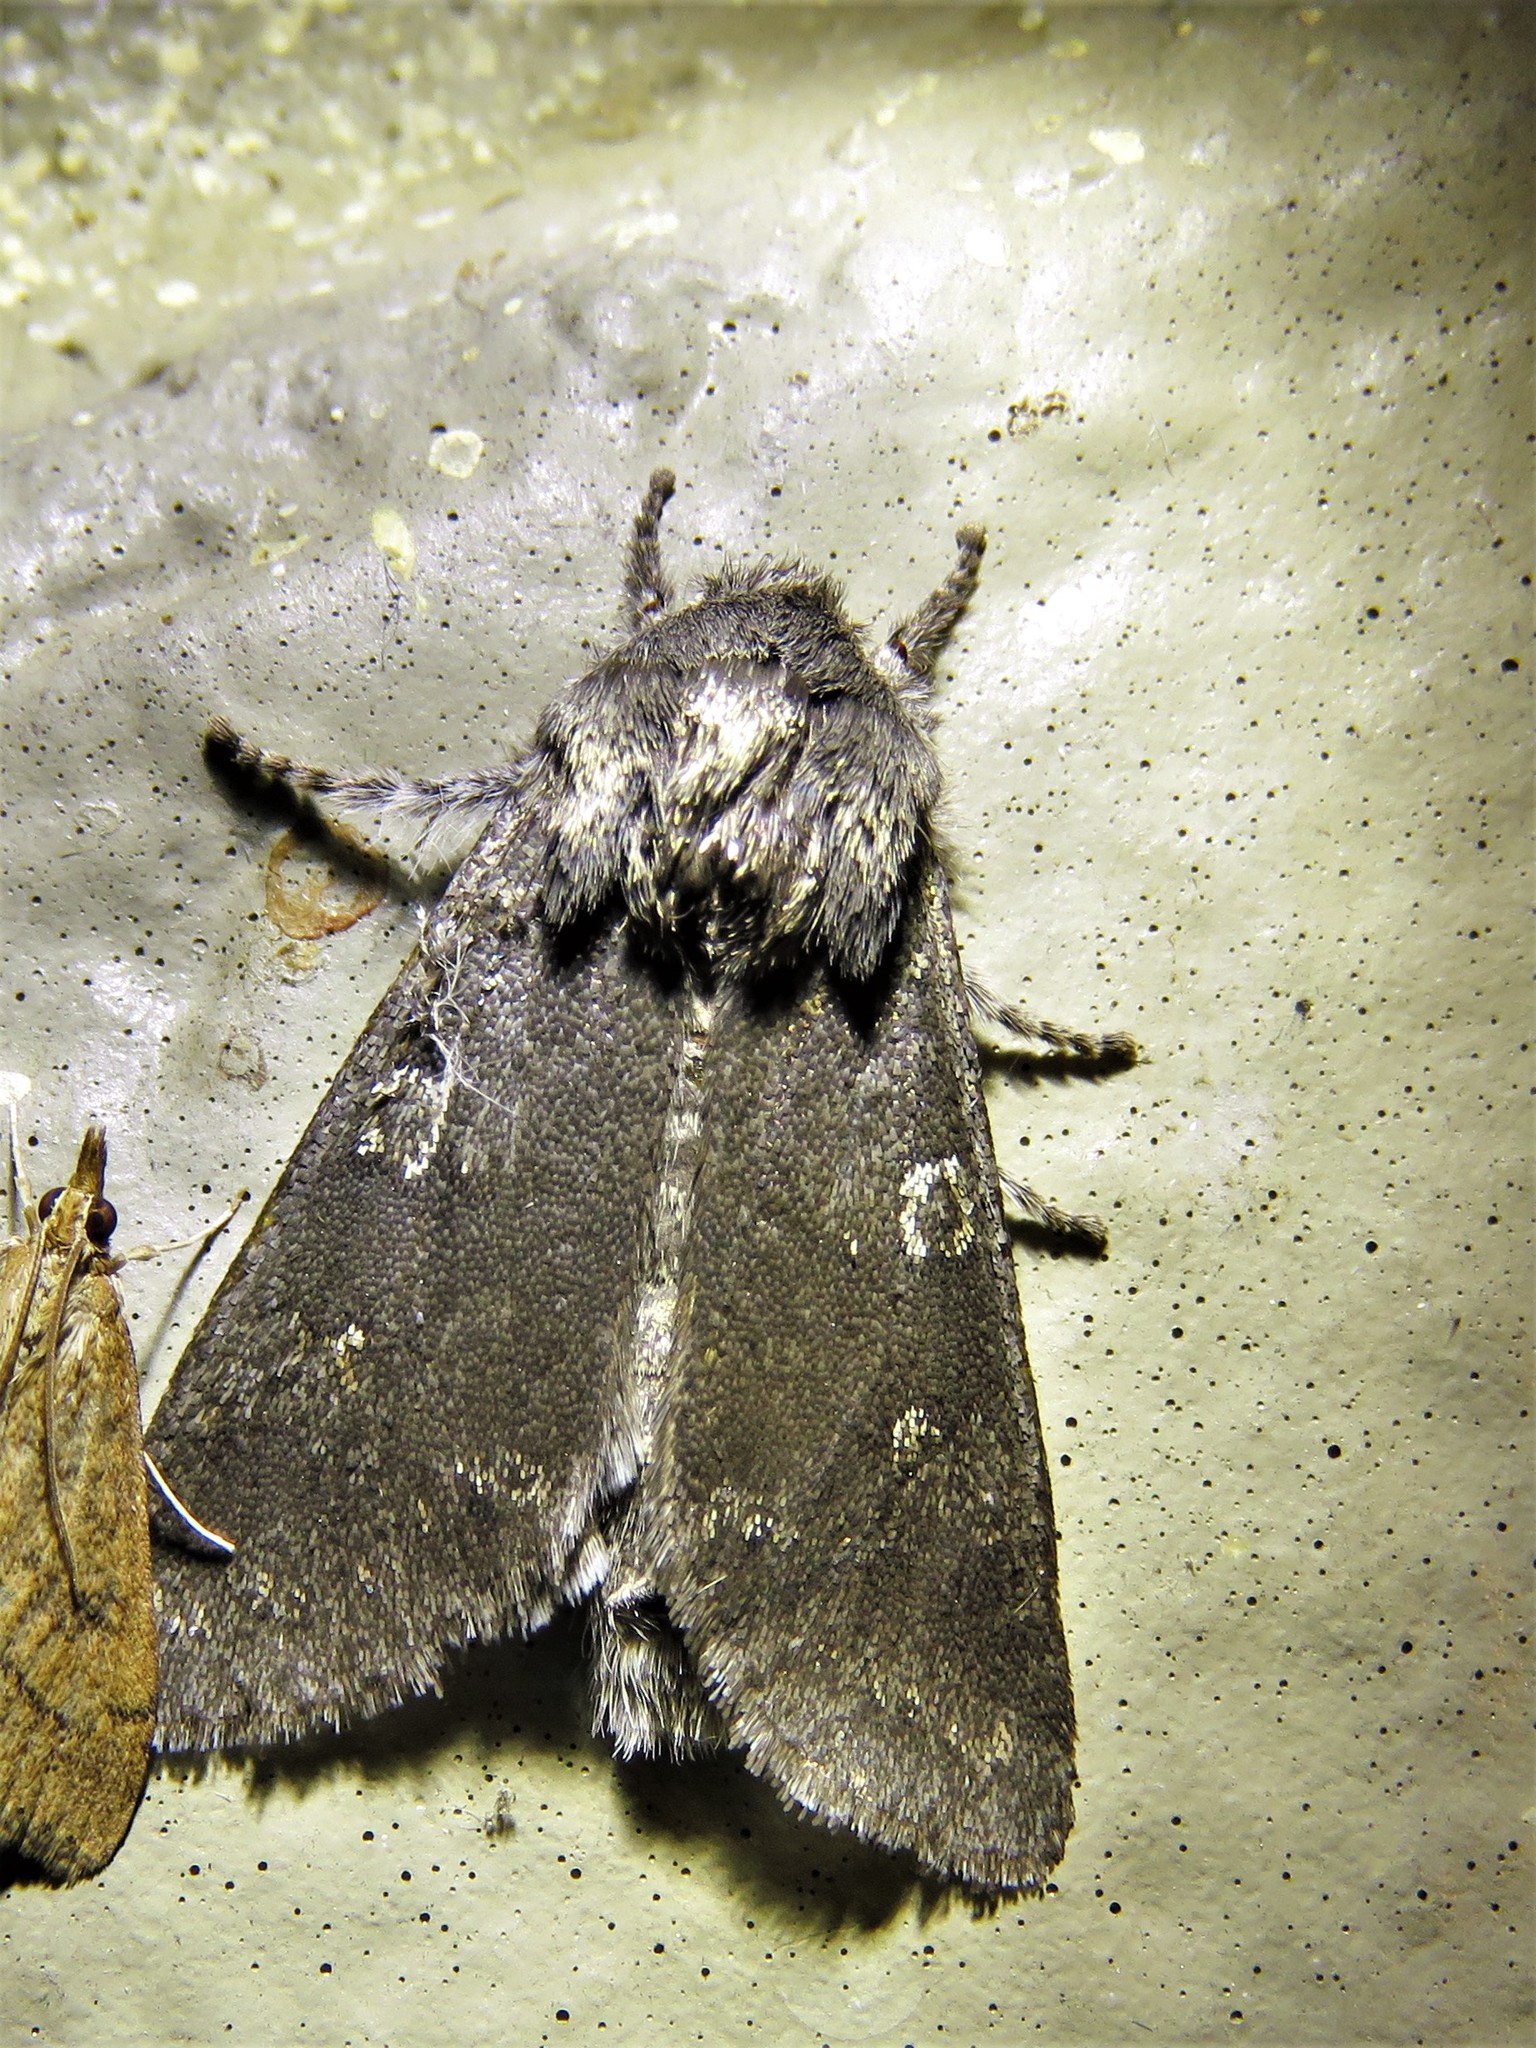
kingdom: Animalia
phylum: Arthropoda
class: Insecta
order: Lepidoptera
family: Noctuidae
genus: Psaphida
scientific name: Psaphida rolandi
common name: Roland's sallow
